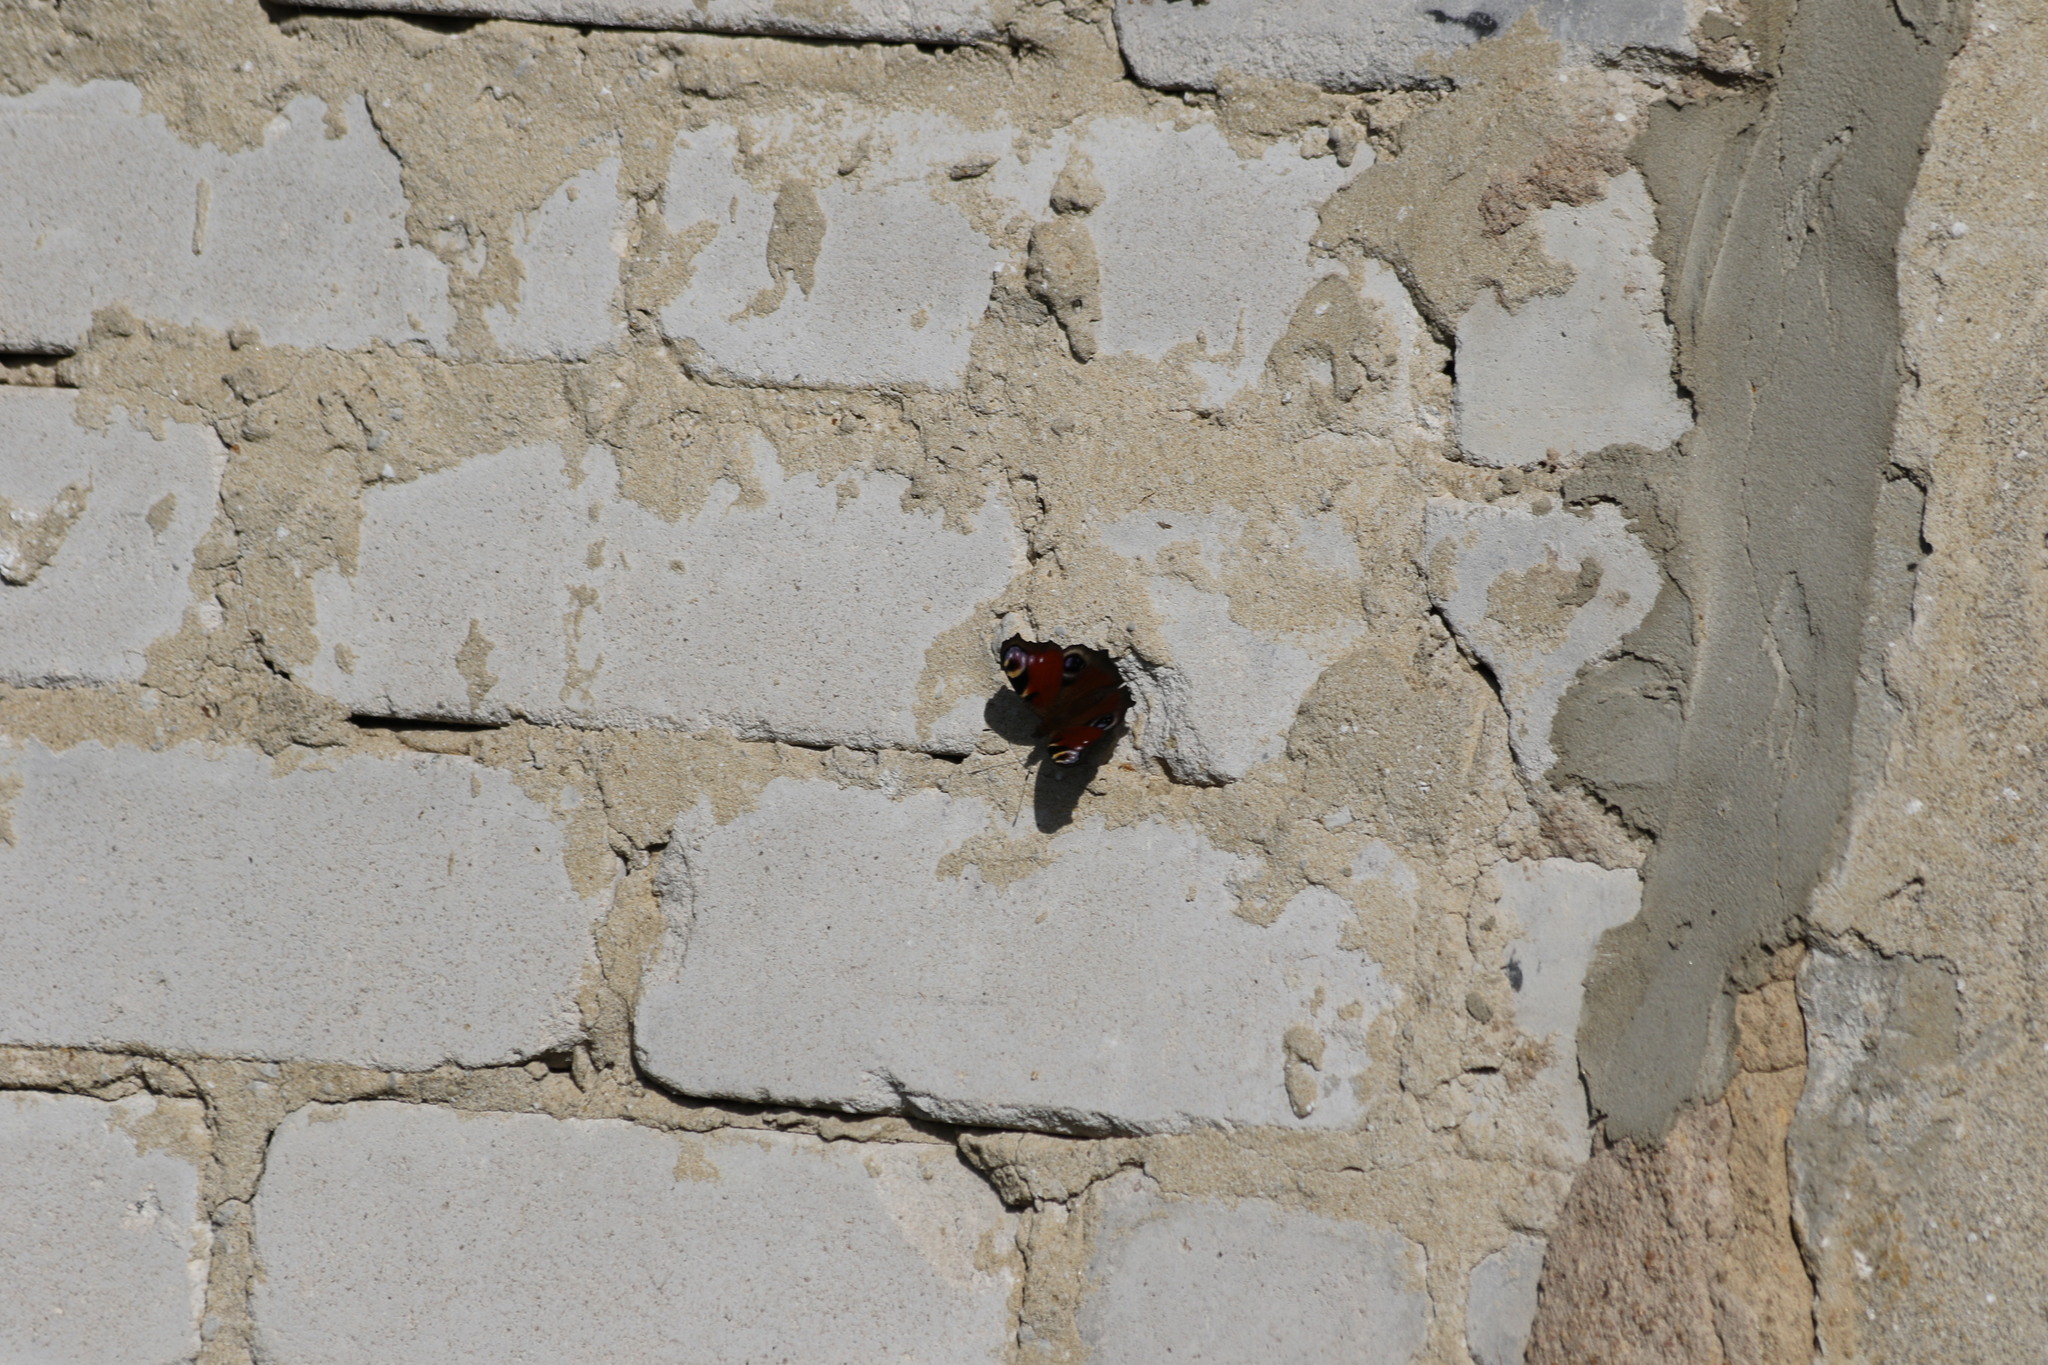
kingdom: Animalia
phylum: Arthropoda
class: Insecta
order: Lepidoptera
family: Nymphalidae
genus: Aglais
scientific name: Aglais io
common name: Peacock
